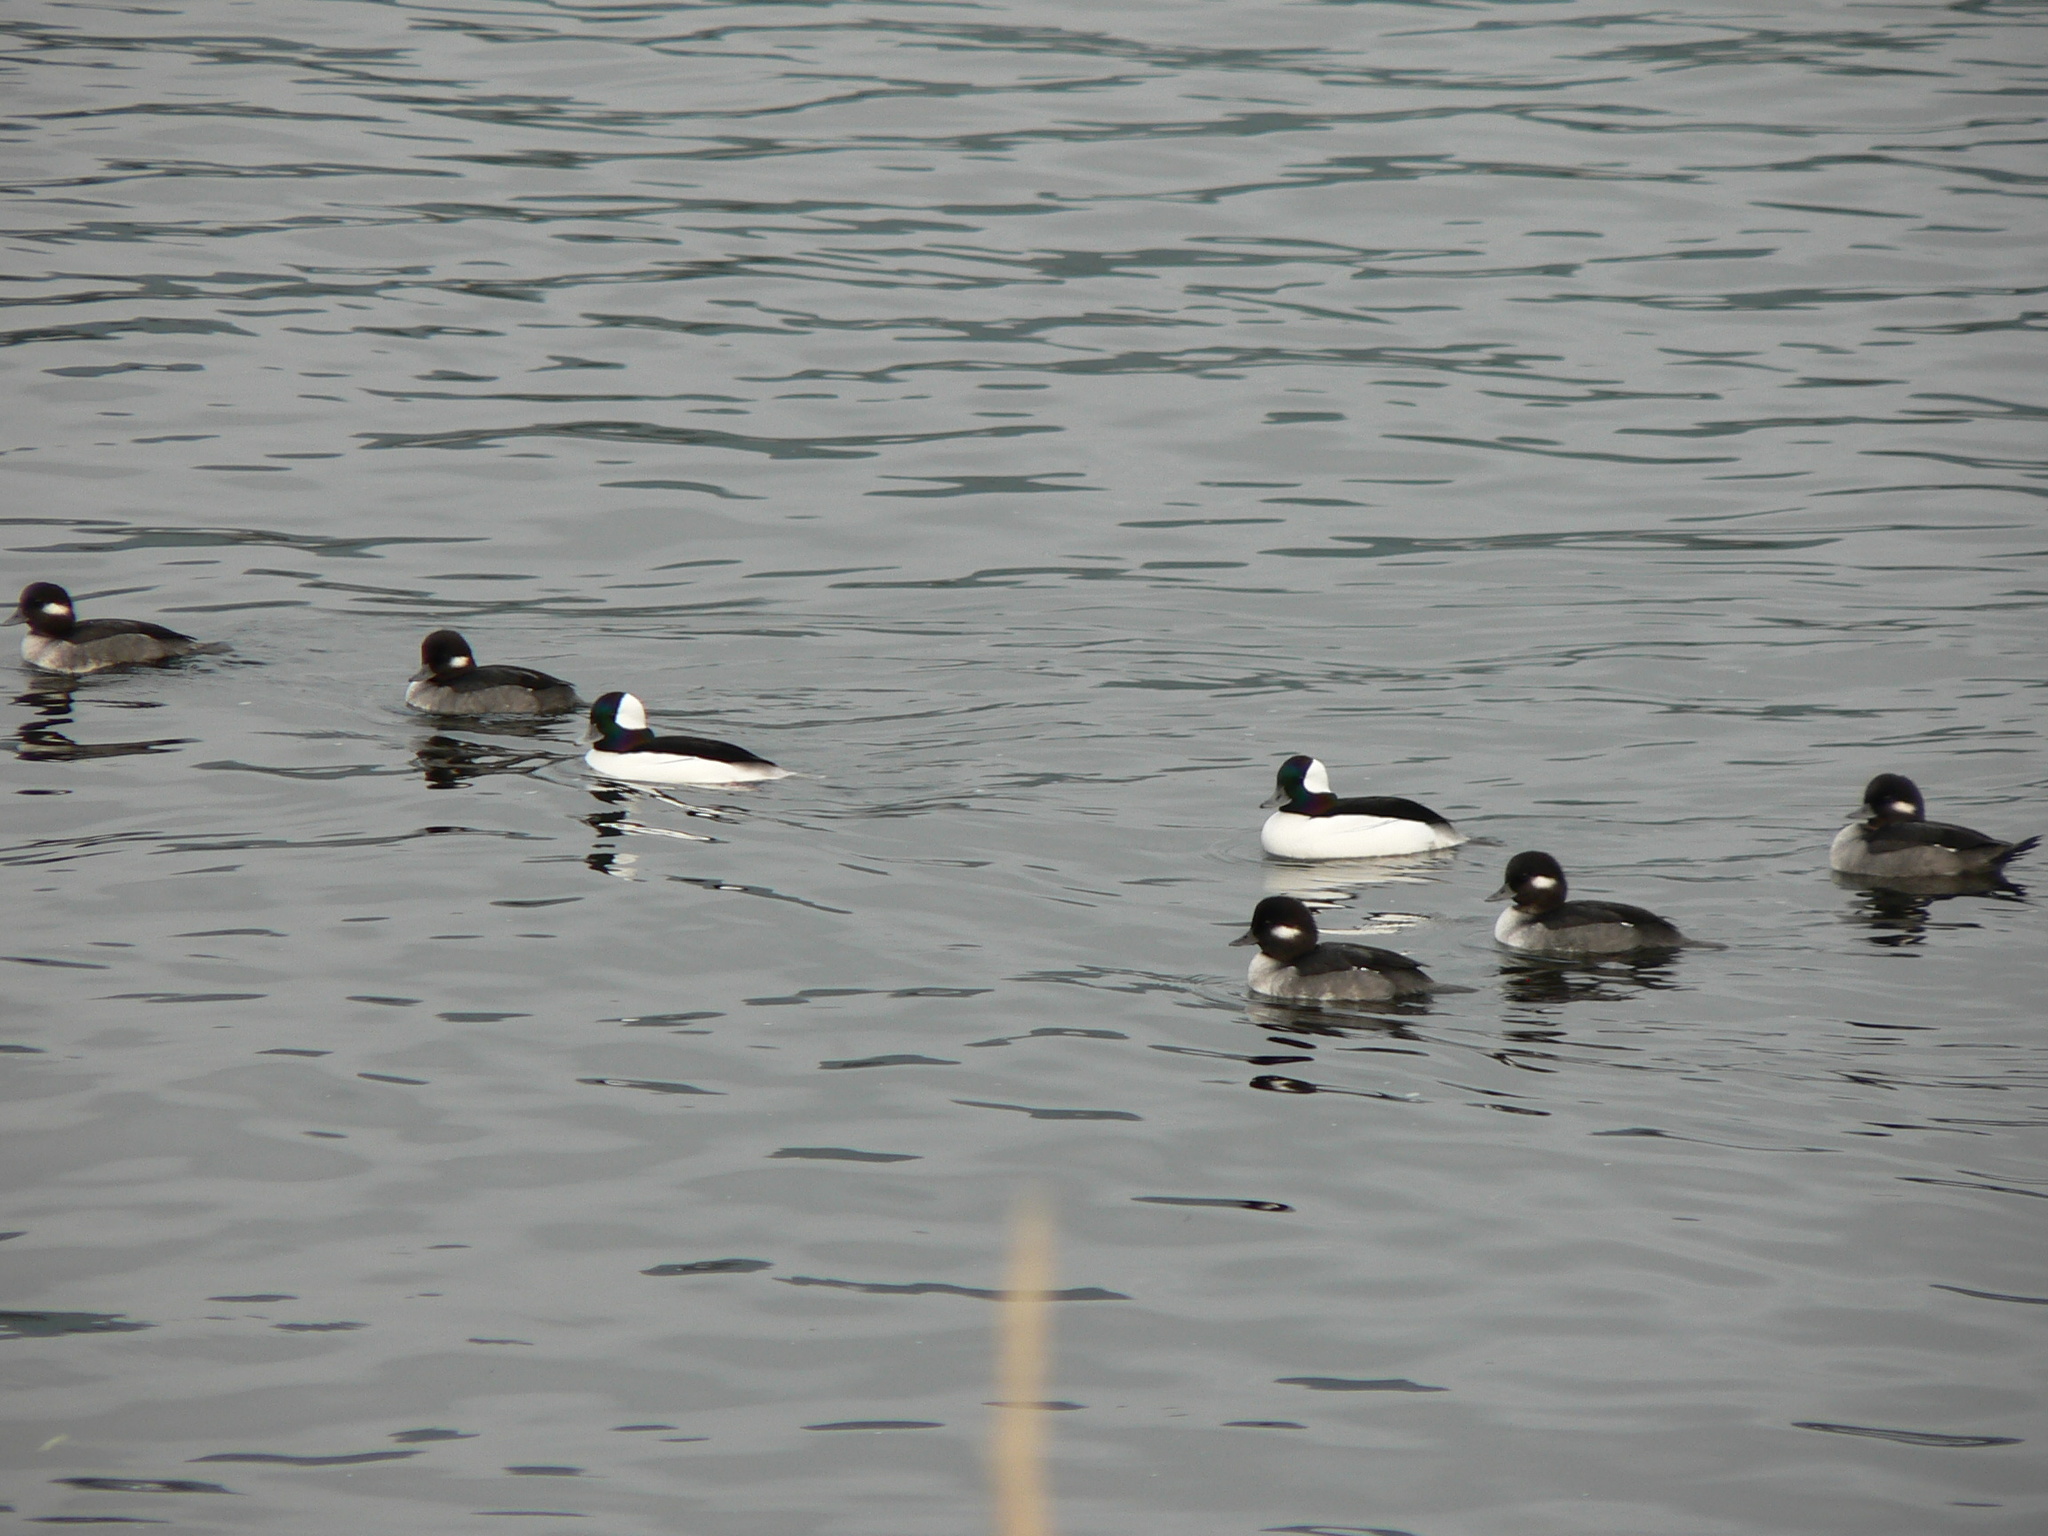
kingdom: Animalia
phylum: Chordata
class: Aves
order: Anseriformes
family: Anatidae
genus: Bucephala
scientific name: Bucephala albeola
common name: Bufflehead
